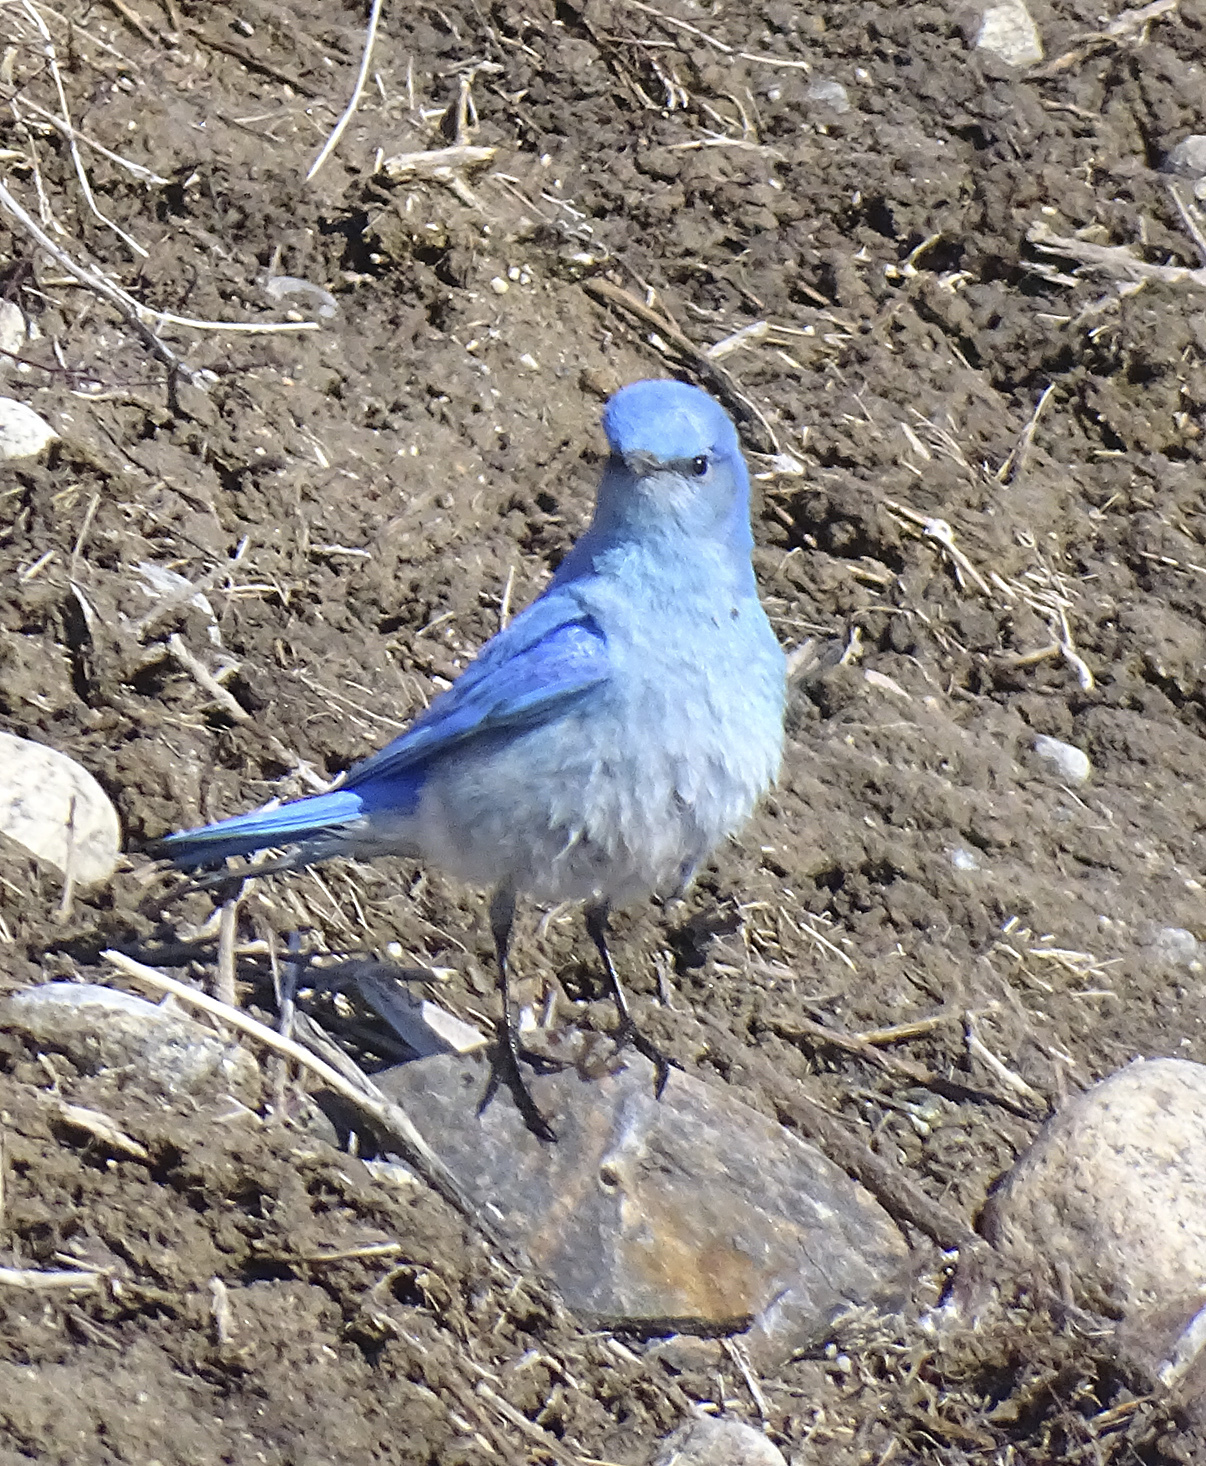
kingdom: Animalia
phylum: Chordata
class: Aves
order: Passeriformes
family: Turdidae
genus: Sialia
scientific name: Sialia currucoides
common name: Mountain bluebird
